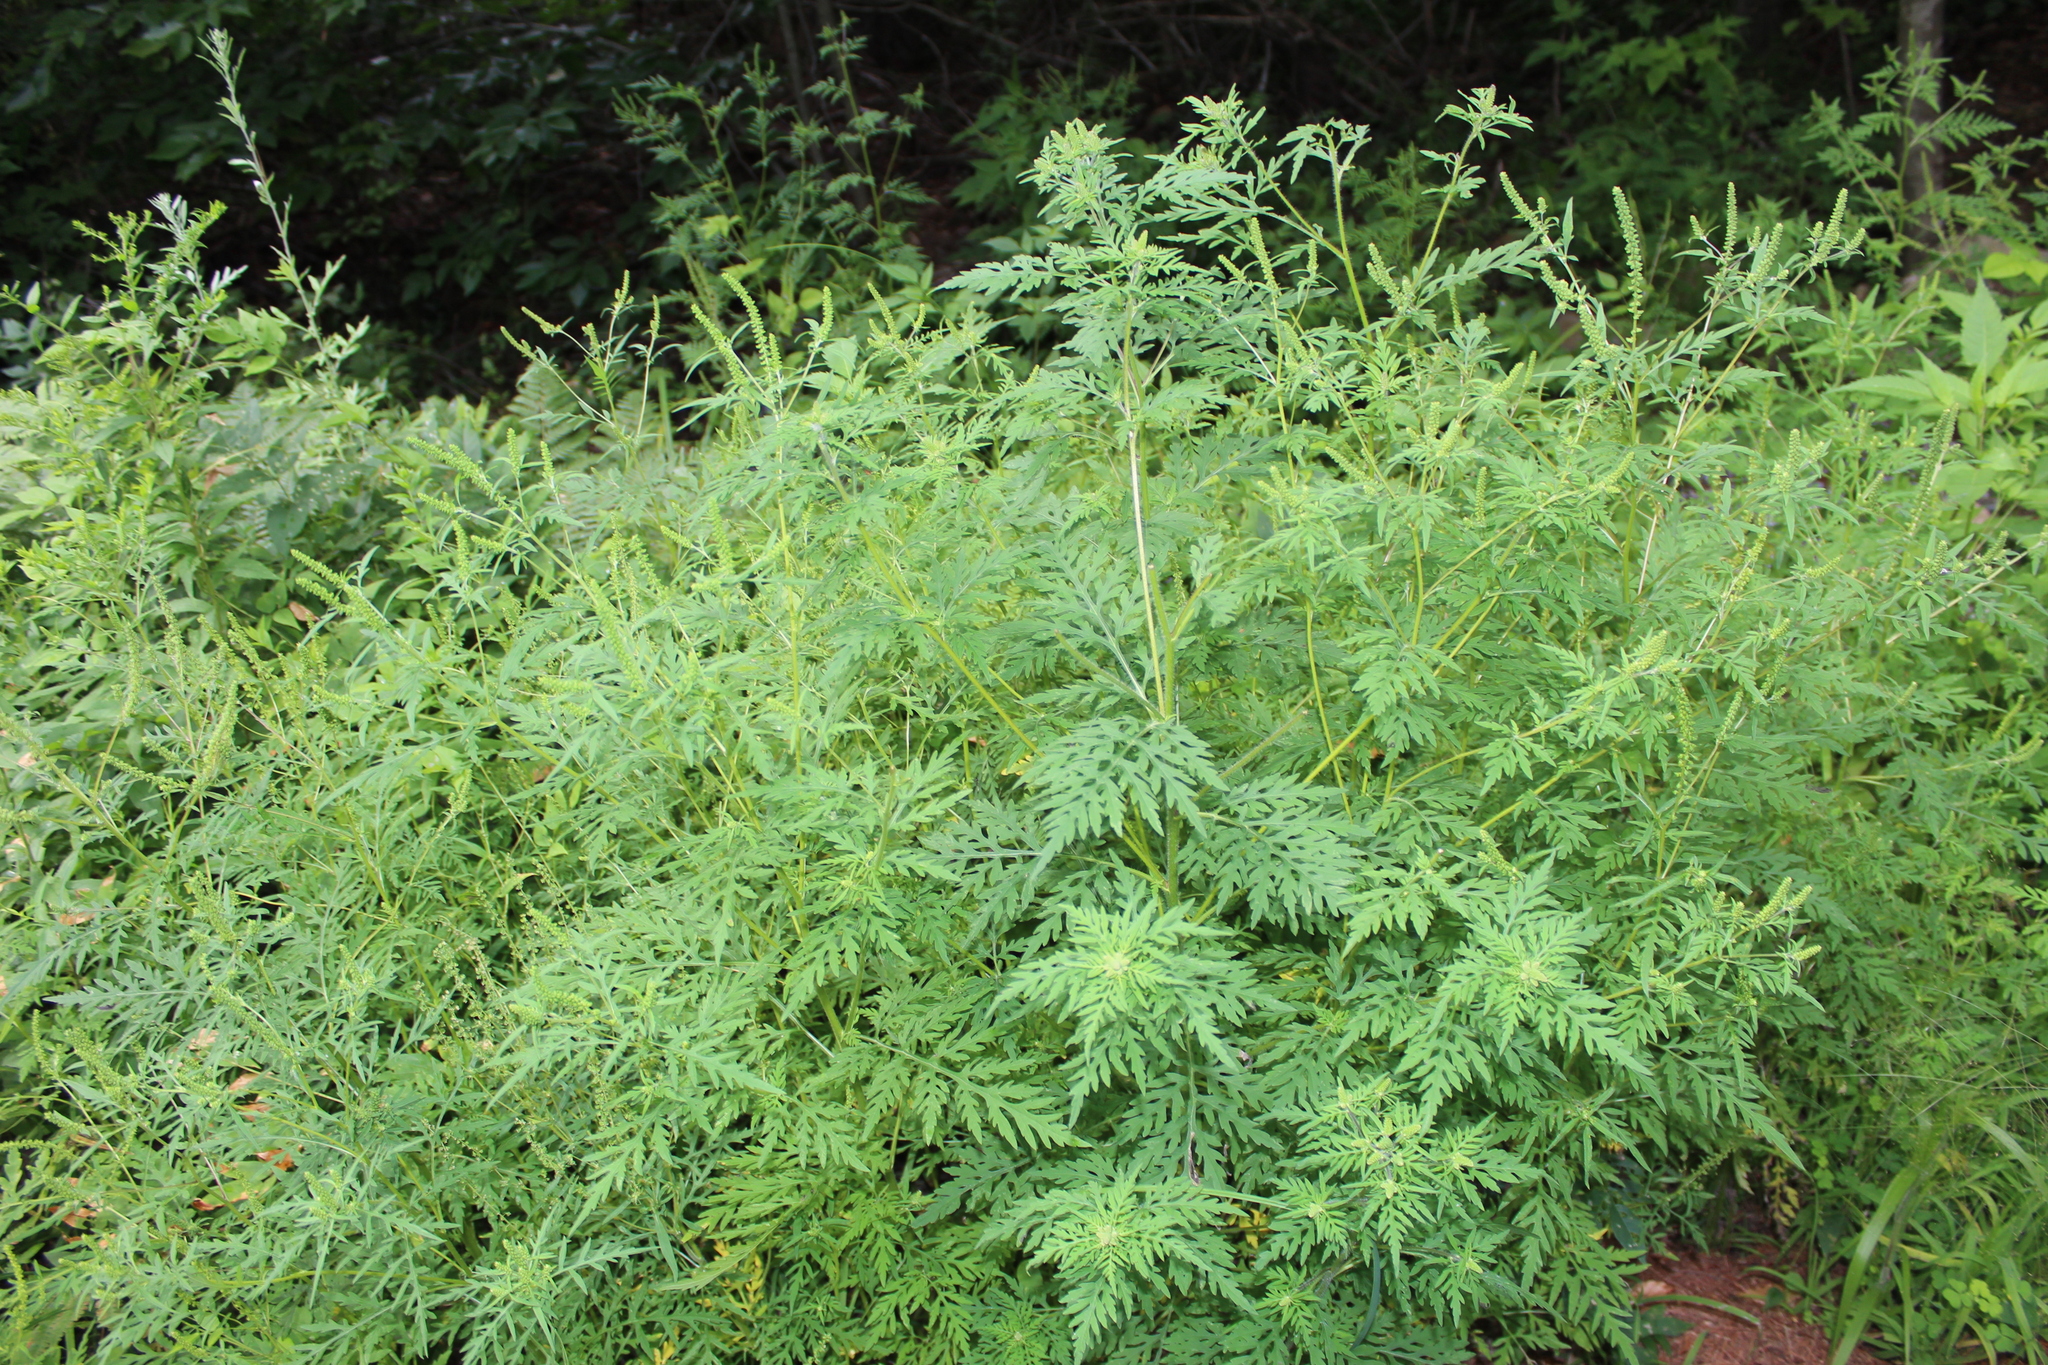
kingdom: Plantae
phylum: Tracheophyta
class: Magnoliopsida
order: Asterales
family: Asteraceae
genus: Ambrosia
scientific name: Ambrosia artemisiifolia
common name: Annual ragweed
